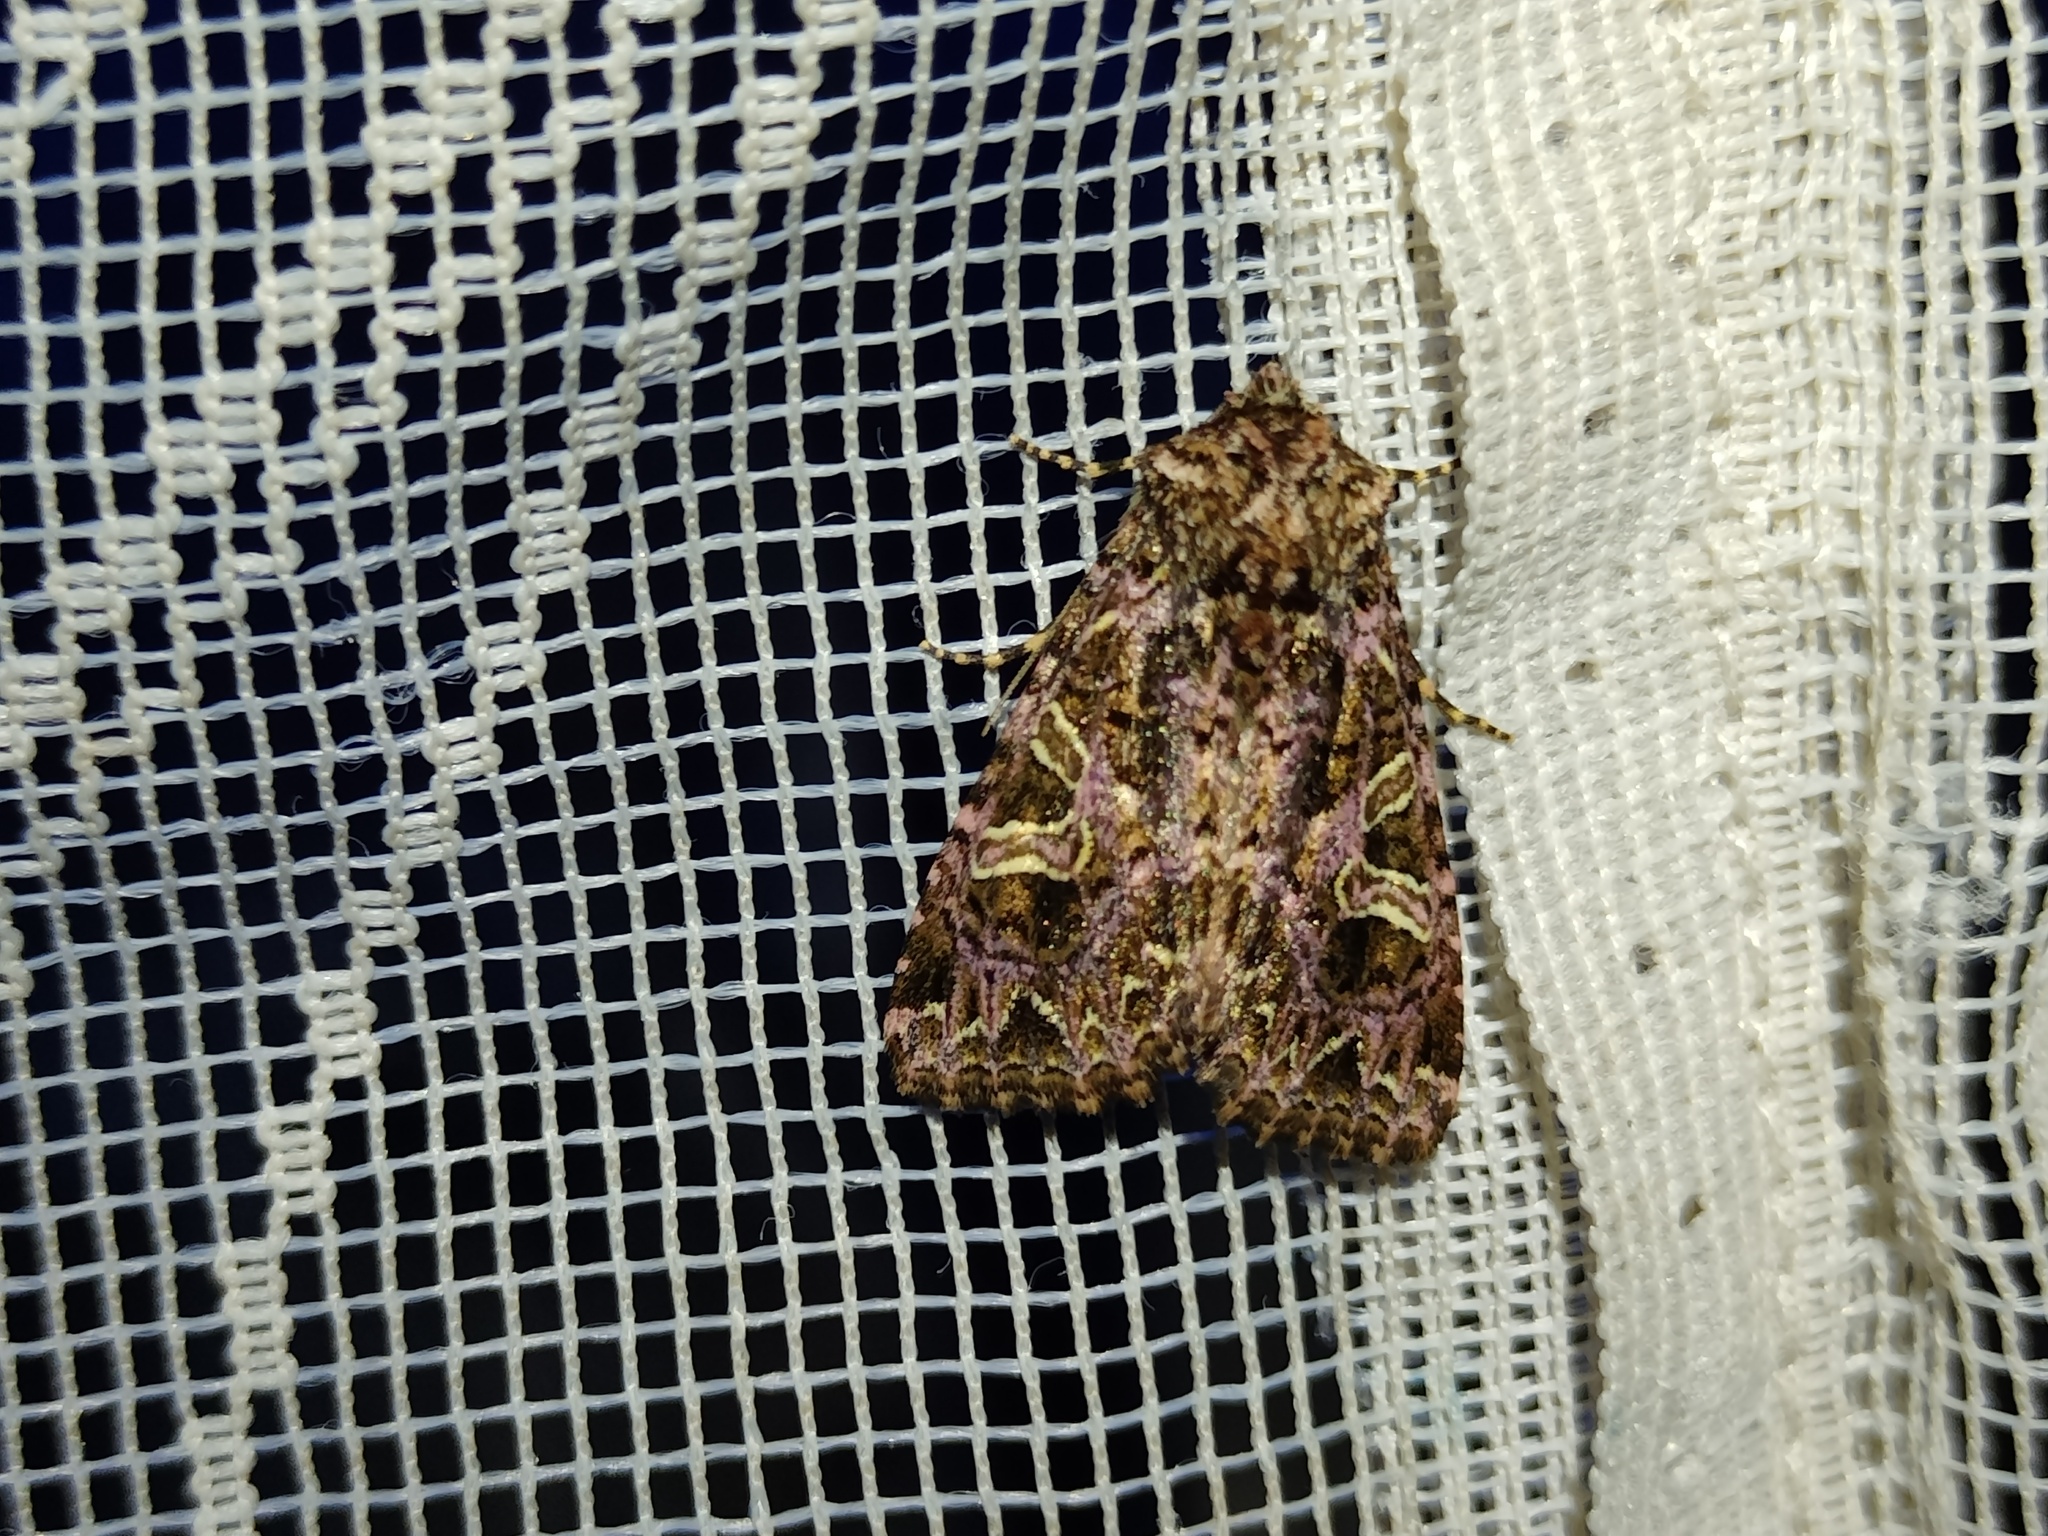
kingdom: Animalia
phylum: Arthropoda
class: Insecta
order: Lepidoptera
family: Noctuidae
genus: Sideridis
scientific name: Sideridis rivularis
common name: Campion
